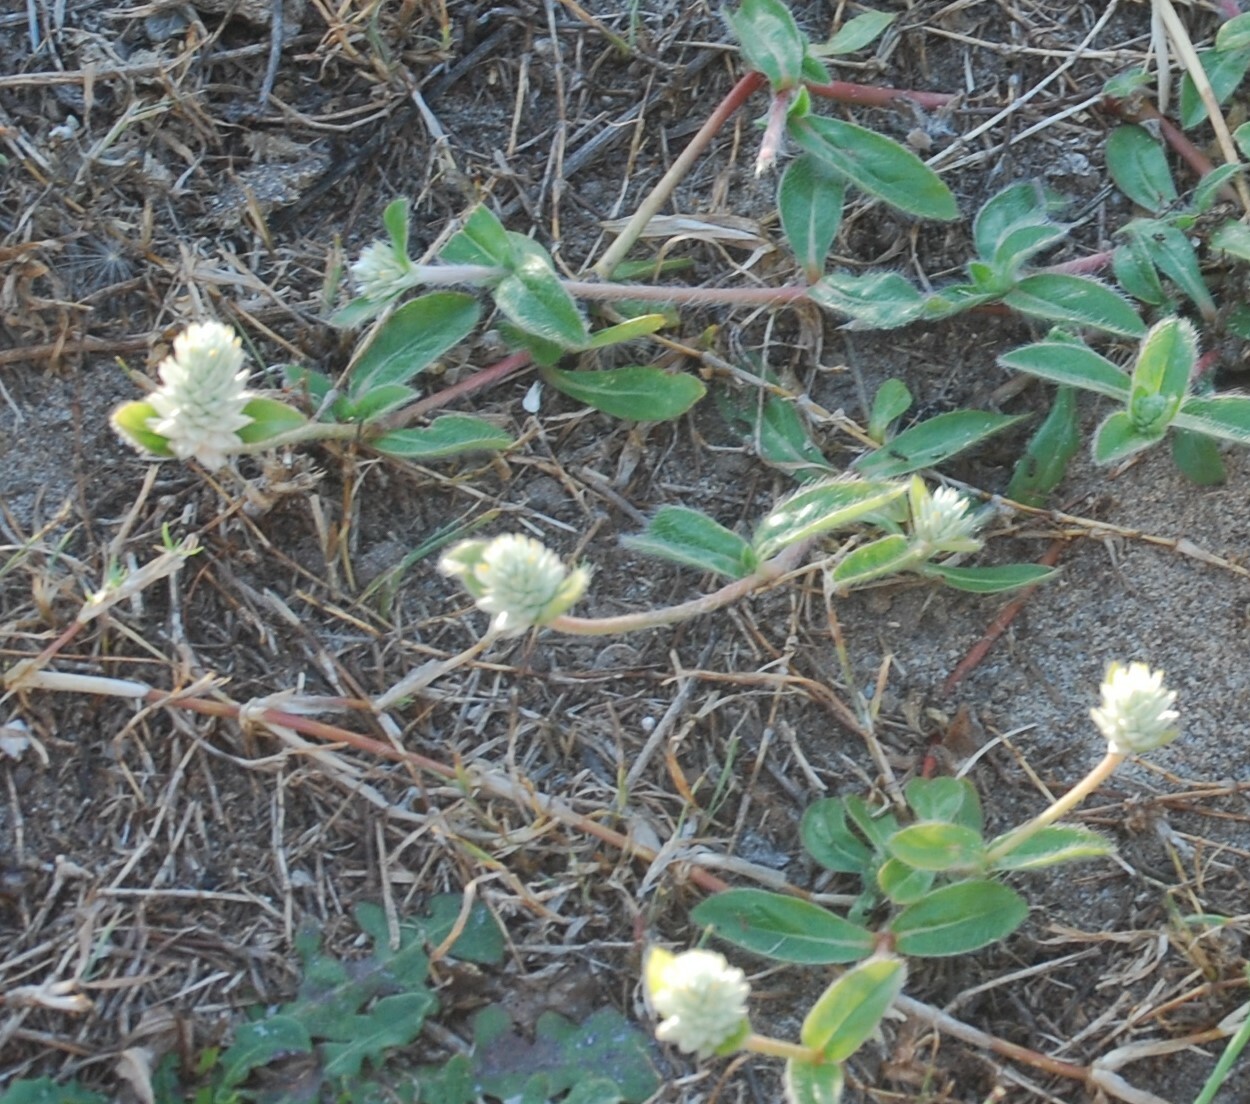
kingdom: Plantae
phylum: Tracheophyta
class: Magnoliopsida
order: Caryophyllales
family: Amaranthaceae
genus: Gomphrena
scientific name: Gomphrena celosioides
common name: Gomphrena-weed
